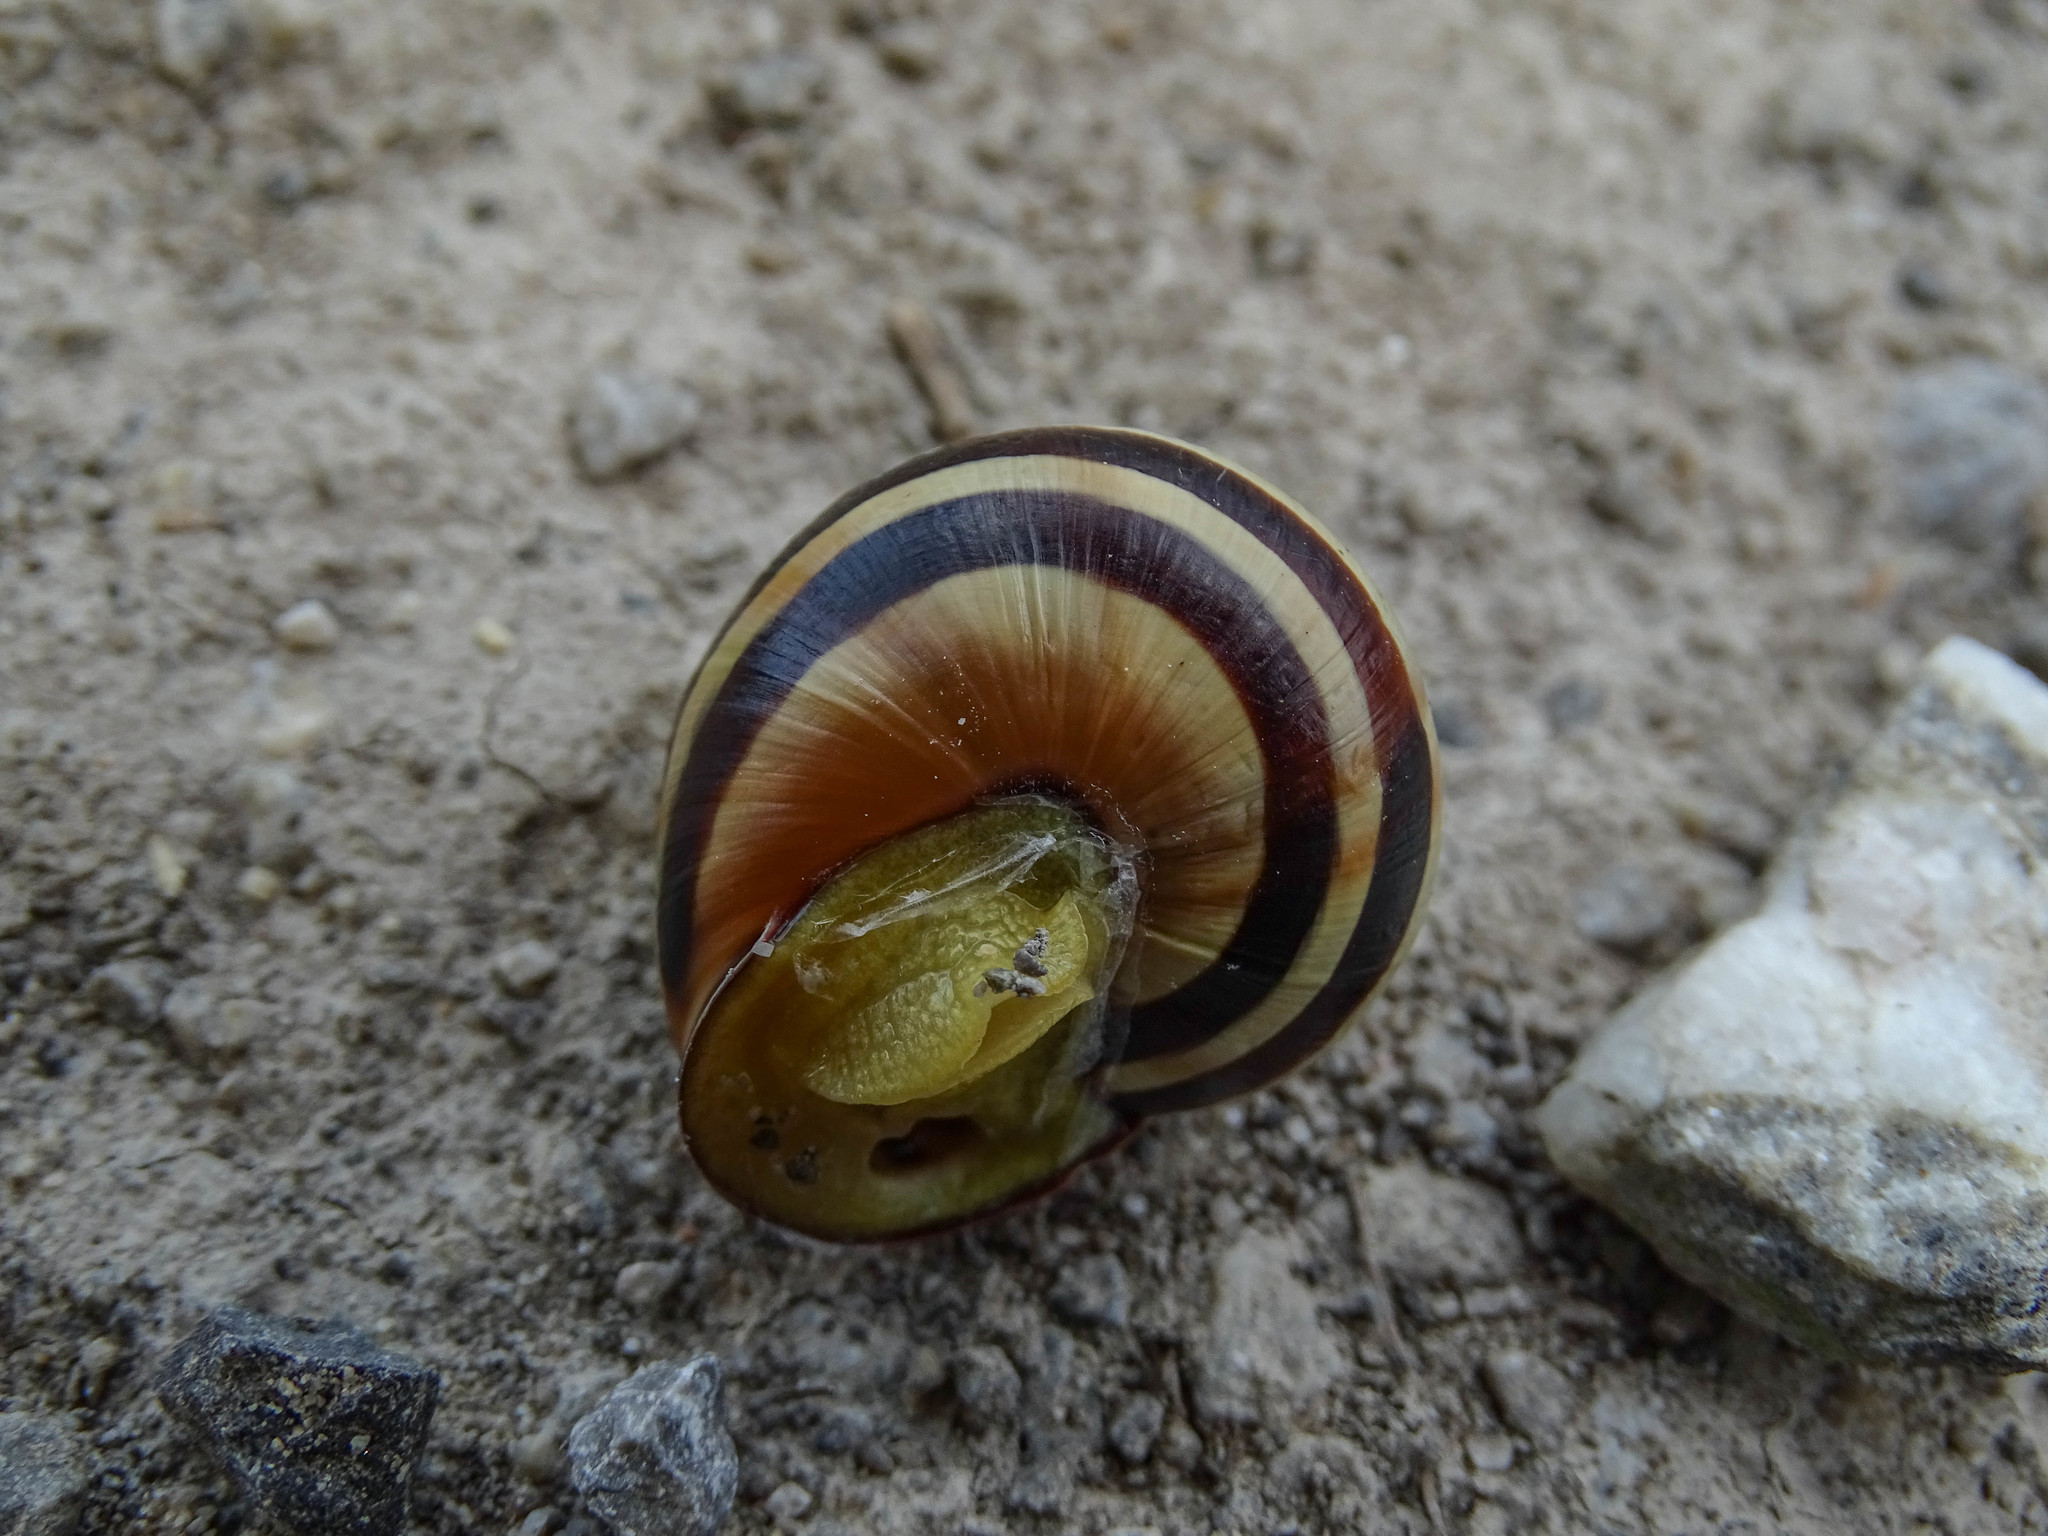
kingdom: Animalia
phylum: Mollusca
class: Gastropoda
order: Stylommatophora
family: Helicidae
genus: Cepaea
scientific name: Cepaea nemoralis
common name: Grovesnail
